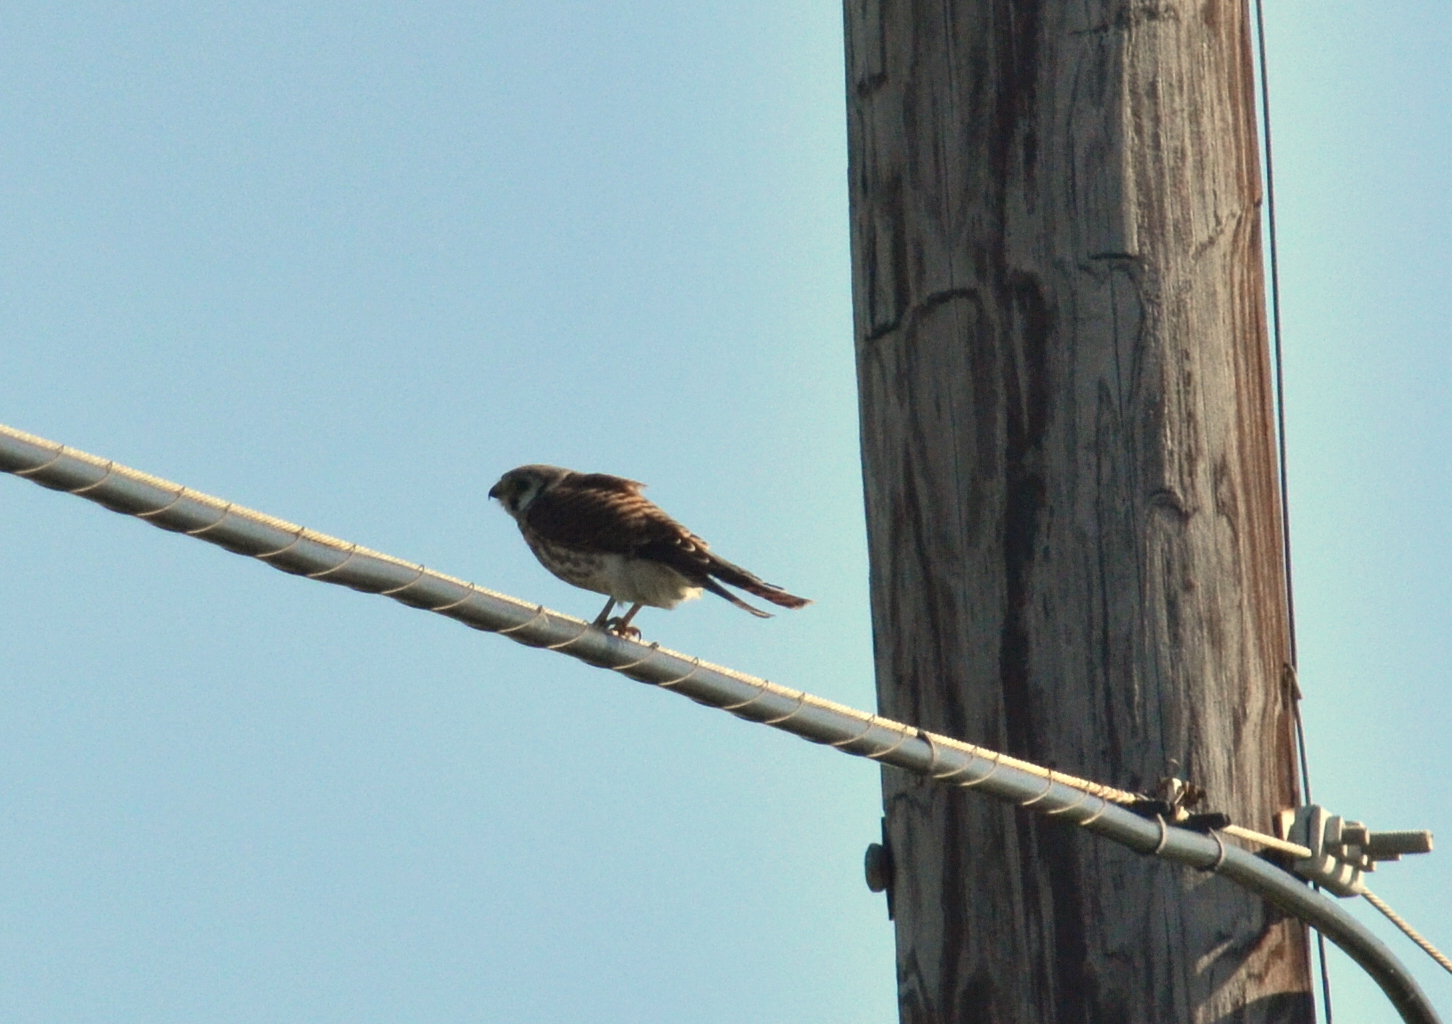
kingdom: Animalia
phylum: Chordata
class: Aves
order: Falconiformes
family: Falconidae
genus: Falco
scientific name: Falco sparverius
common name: American kestrel
